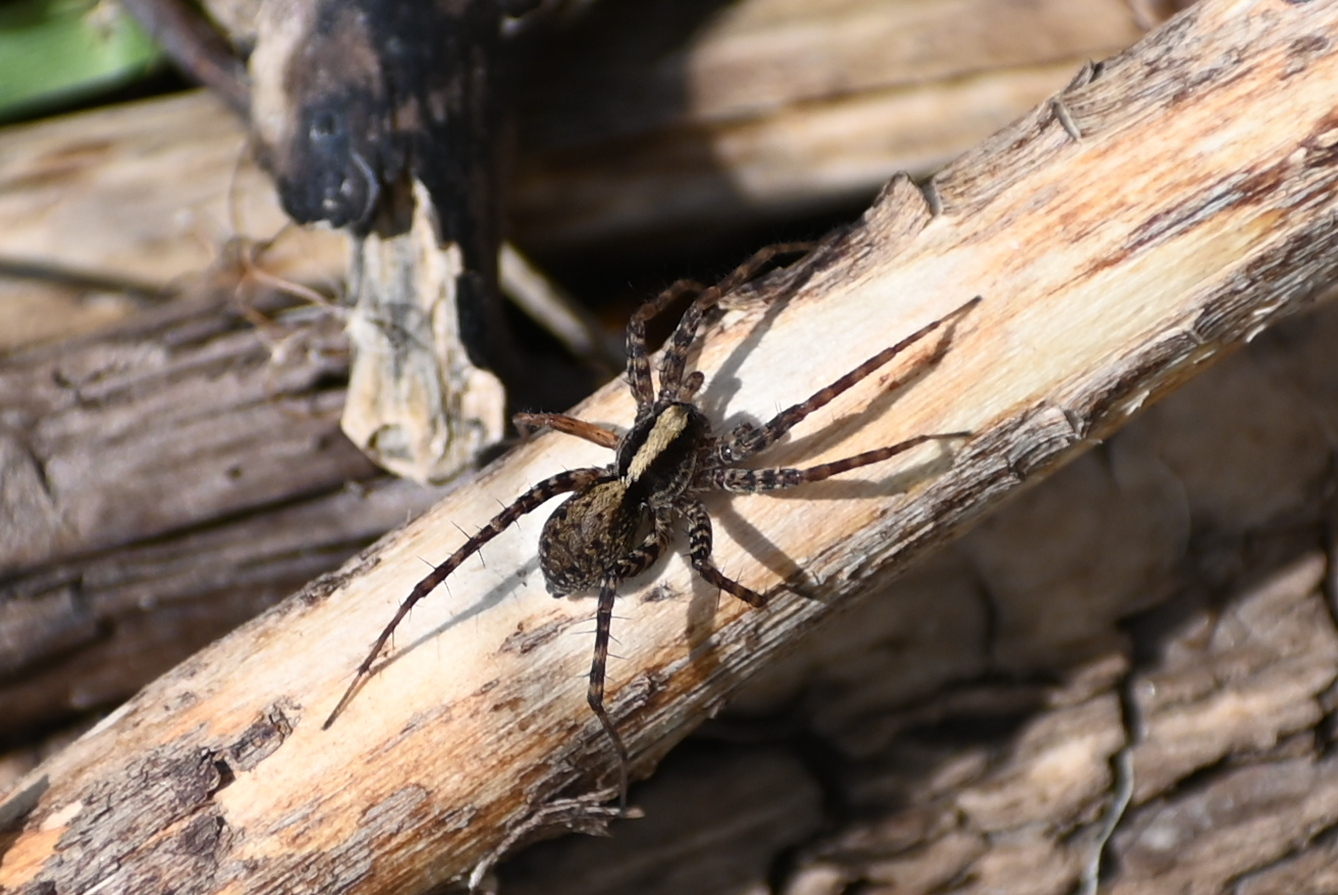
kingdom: Animalia
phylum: Arthropoda
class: Arachnida
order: Araneae
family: Lycosidae
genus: Pardosa
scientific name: Pardosa
